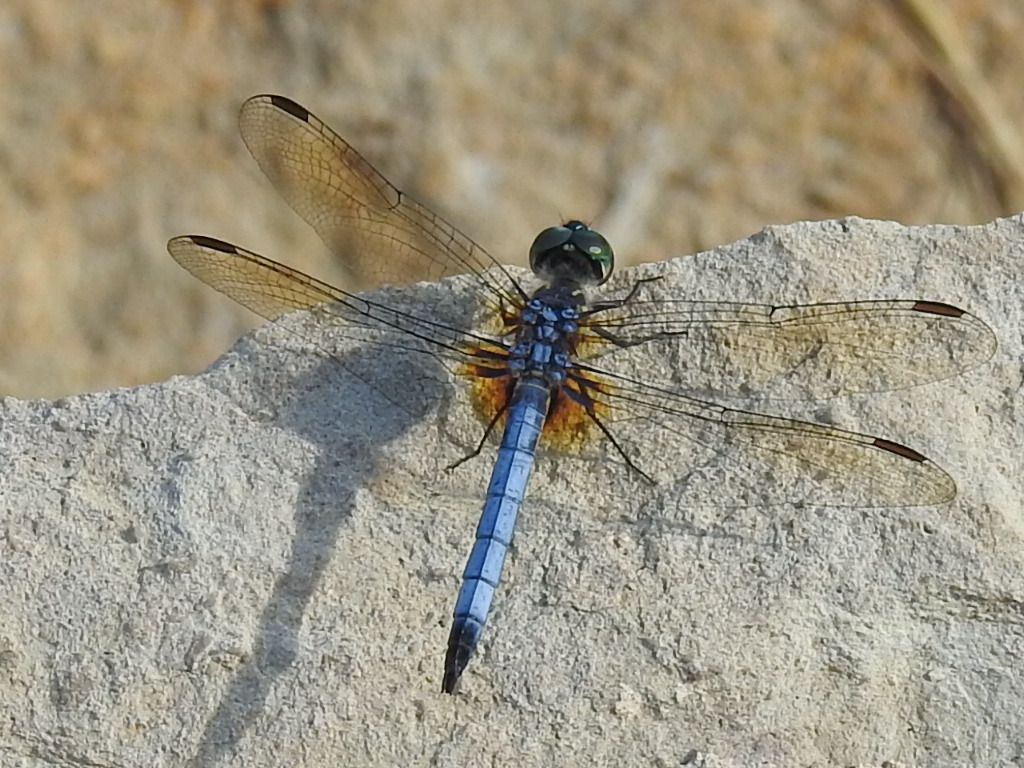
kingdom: Animalia
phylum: Arthropoda
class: Insecta
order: Odonata
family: Libellulidae
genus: Pachydiplax
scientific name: Pachydiplax longipennis
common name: Blue dasher
